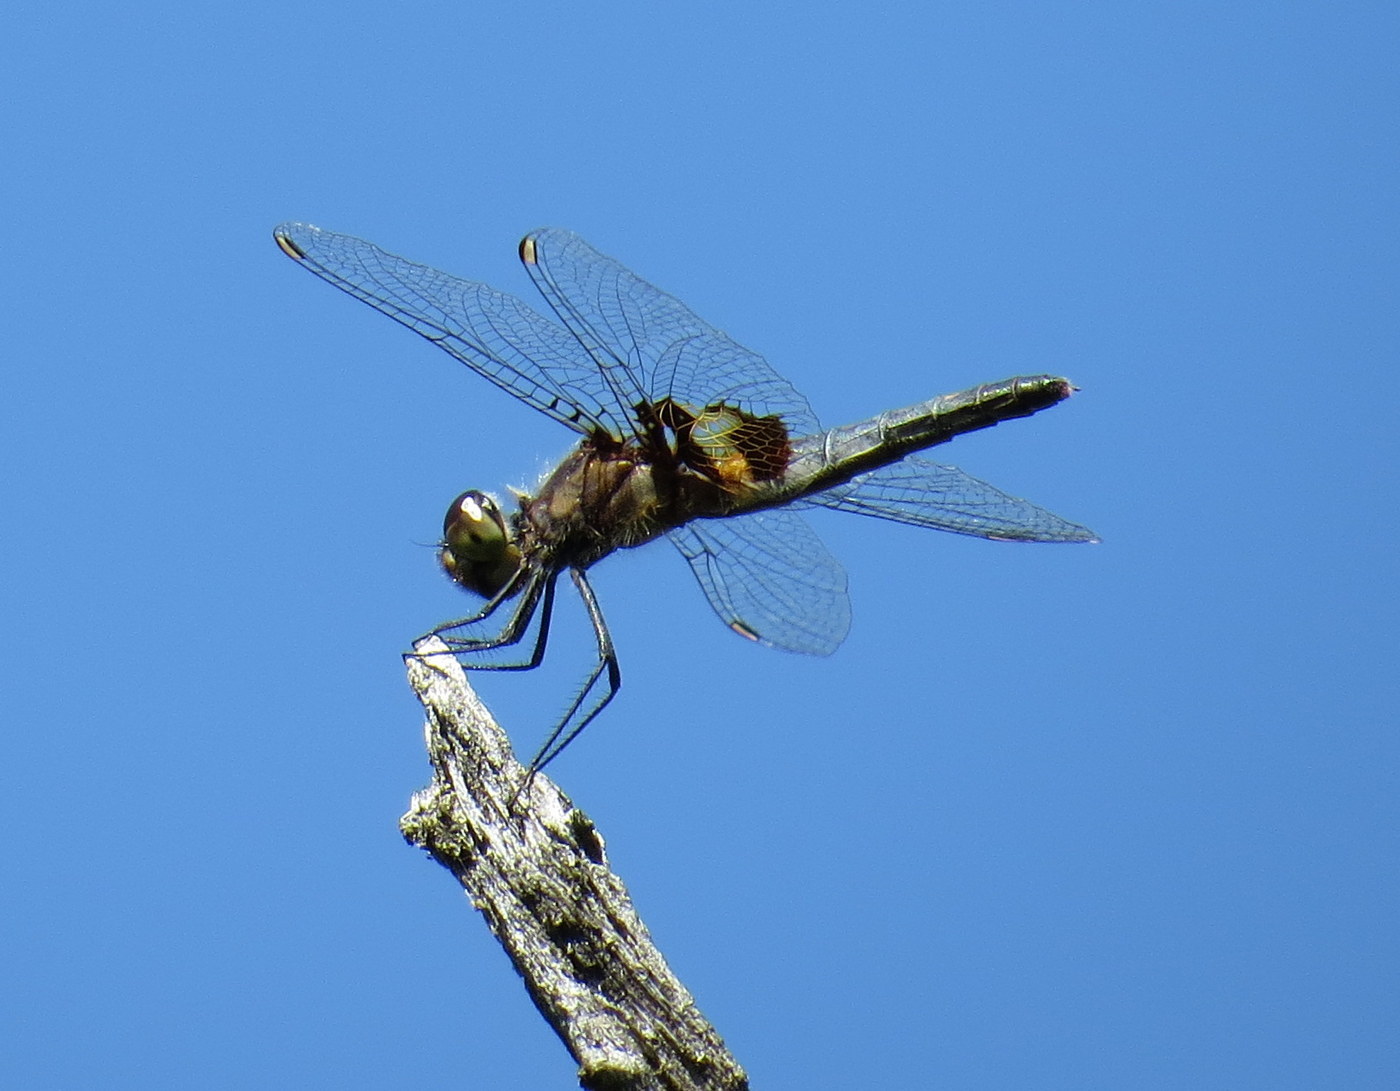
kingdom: Animalia
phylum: Arthropoda
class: Insecta
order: Odonata
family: Libellulidae
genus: Celithemis
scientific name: Celithemis martha
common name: Martha's pennant
